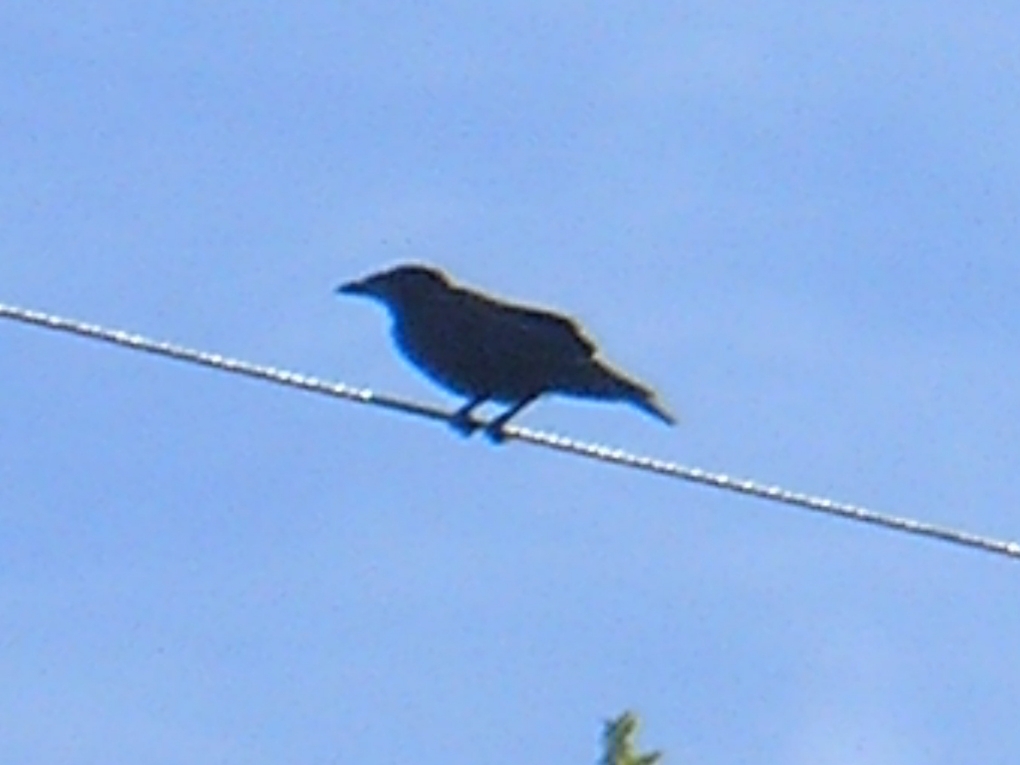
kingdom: Animalia
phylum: Chordata
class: Aves
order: Passeriformes
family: Corvidae
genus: Corvus
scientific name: Corvus frugilegus
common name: Rook
